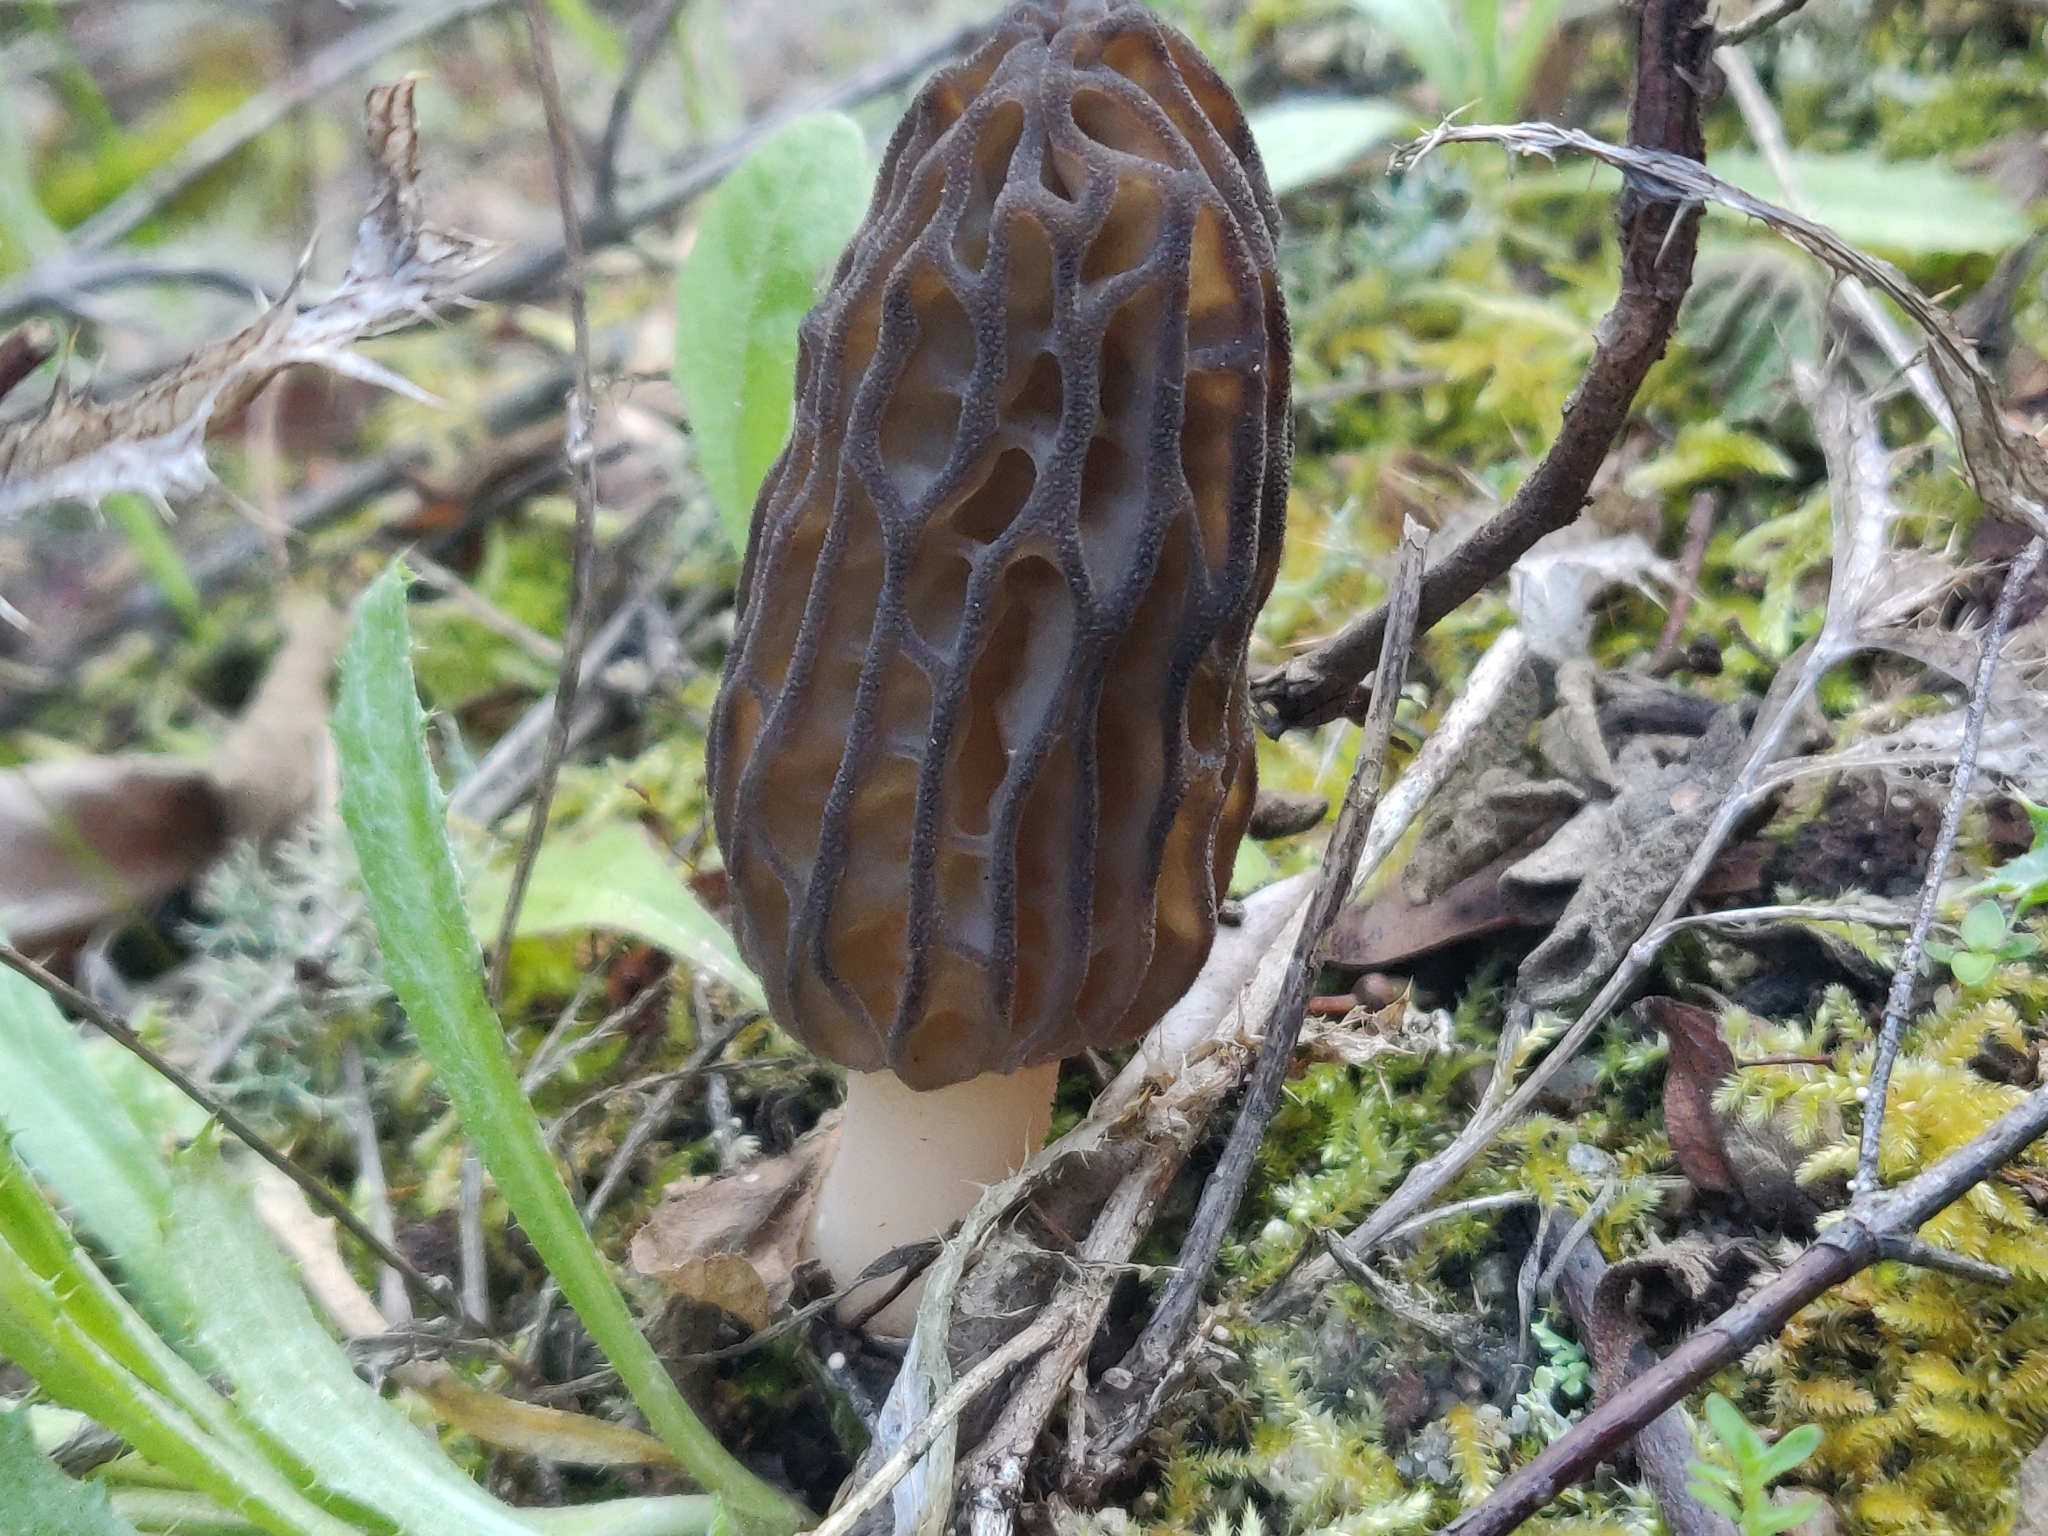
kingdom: Fungi
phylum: Ascomycota
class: Pezizomycetes
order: Pezizales
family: Morchellaceae
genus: Morchella
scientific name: Morchella
